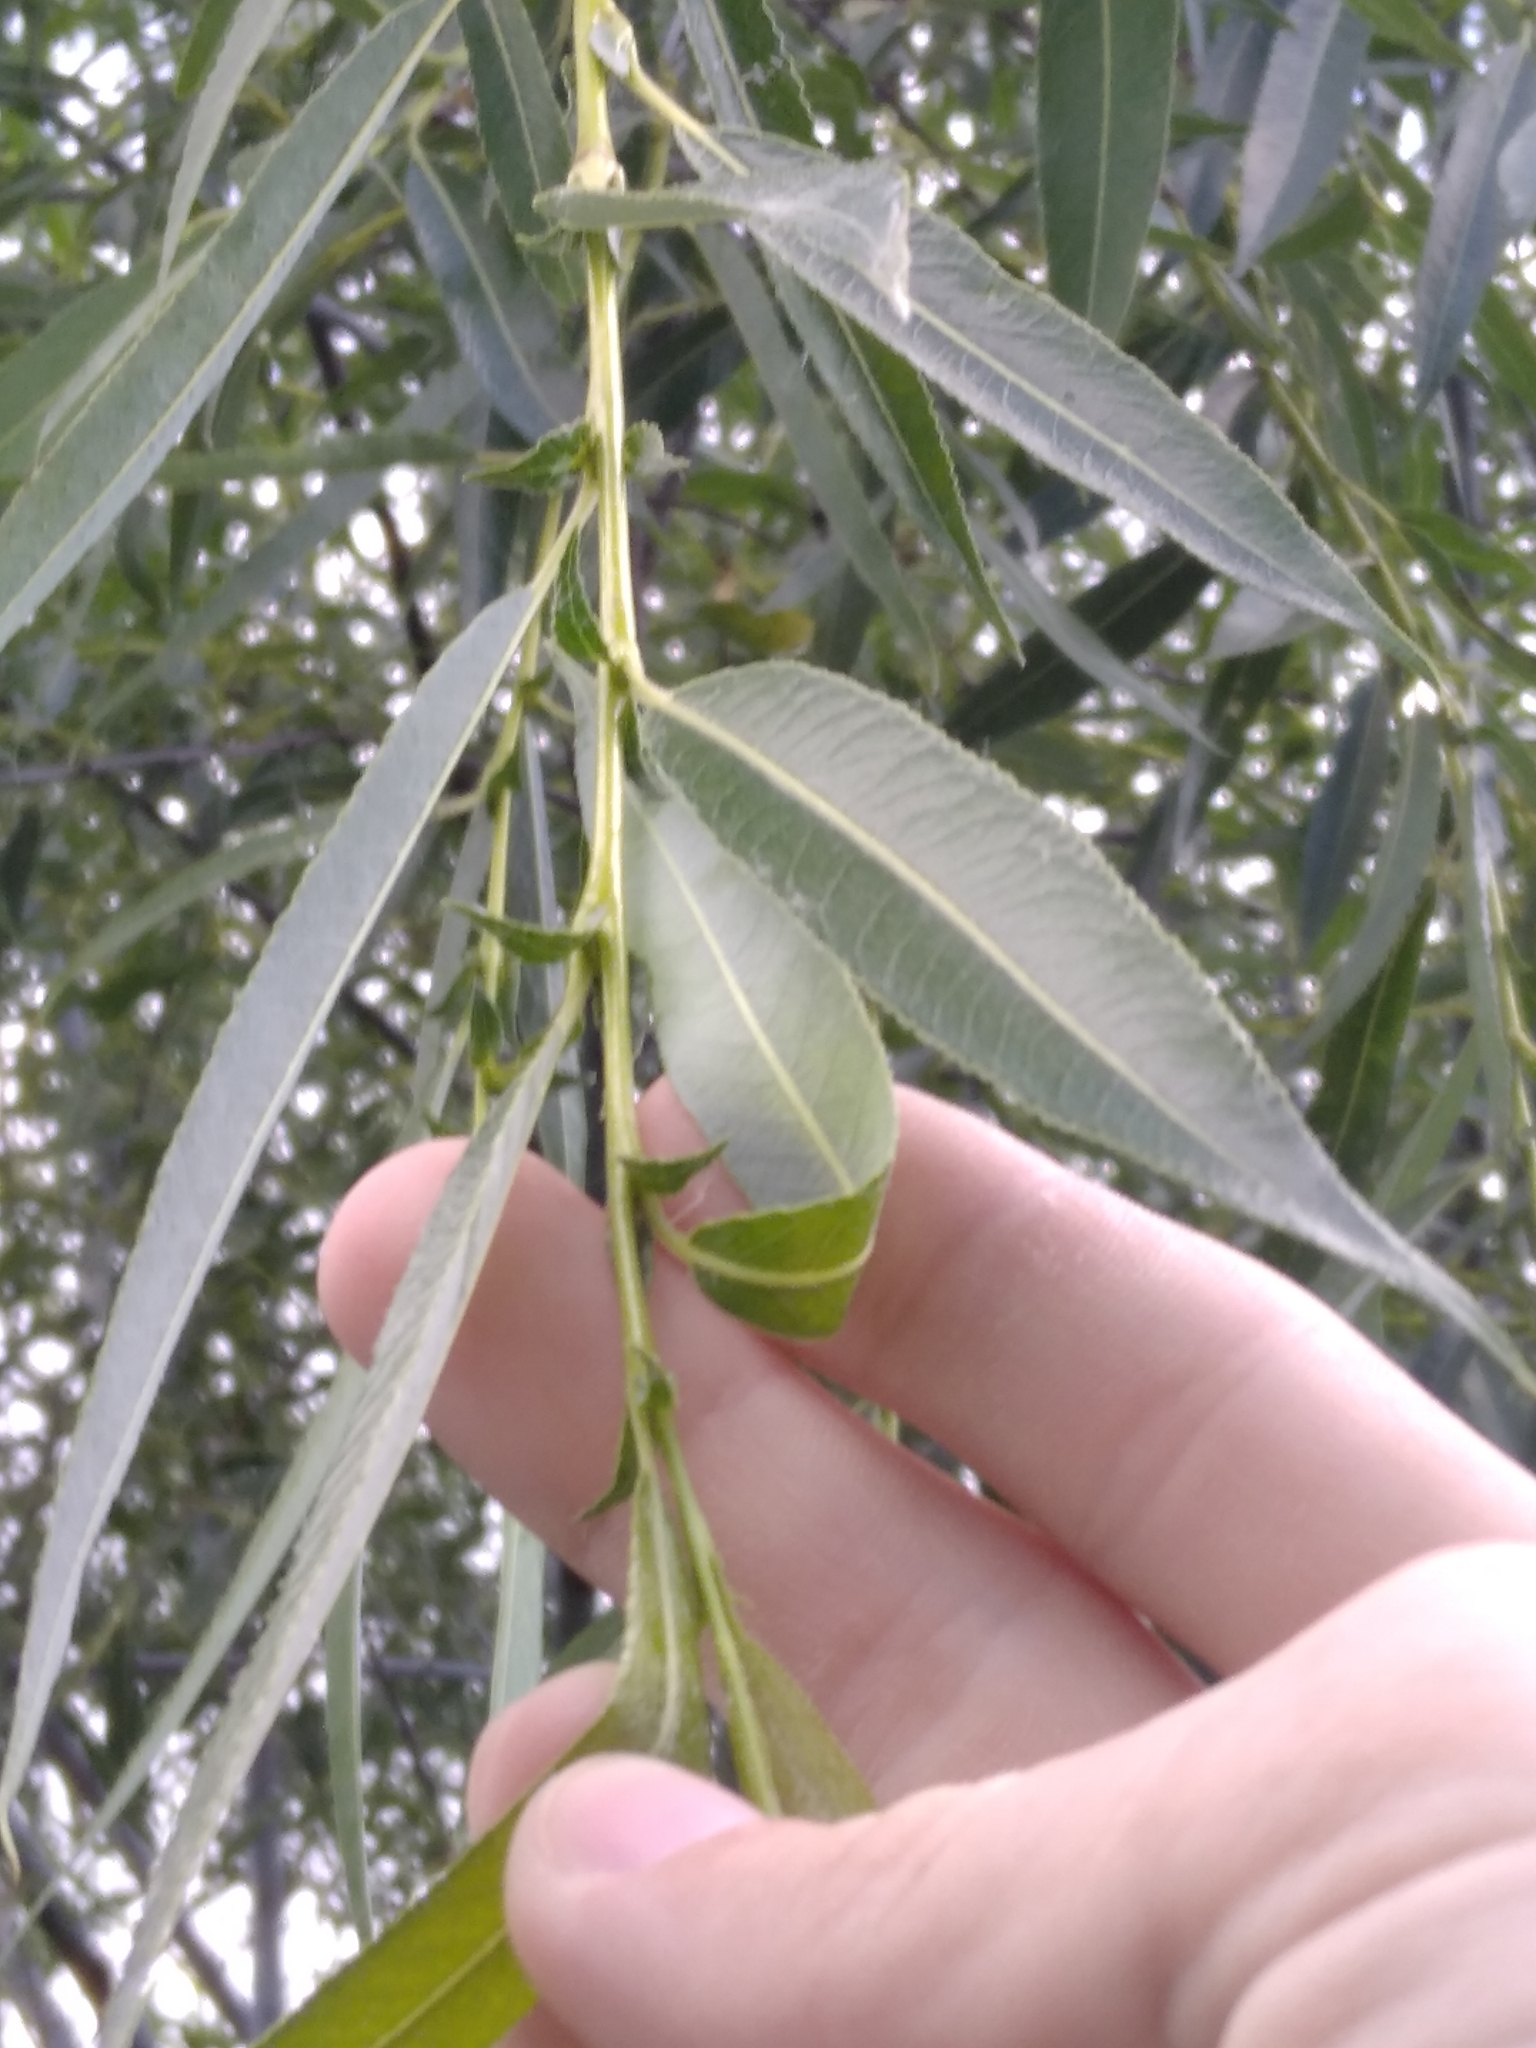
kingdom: Plantae
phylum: Tracheophyta
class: Magnoliopsida
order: Malpighiales
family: Salicaceae
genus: Salix
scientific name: Salix alba
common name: White willow
